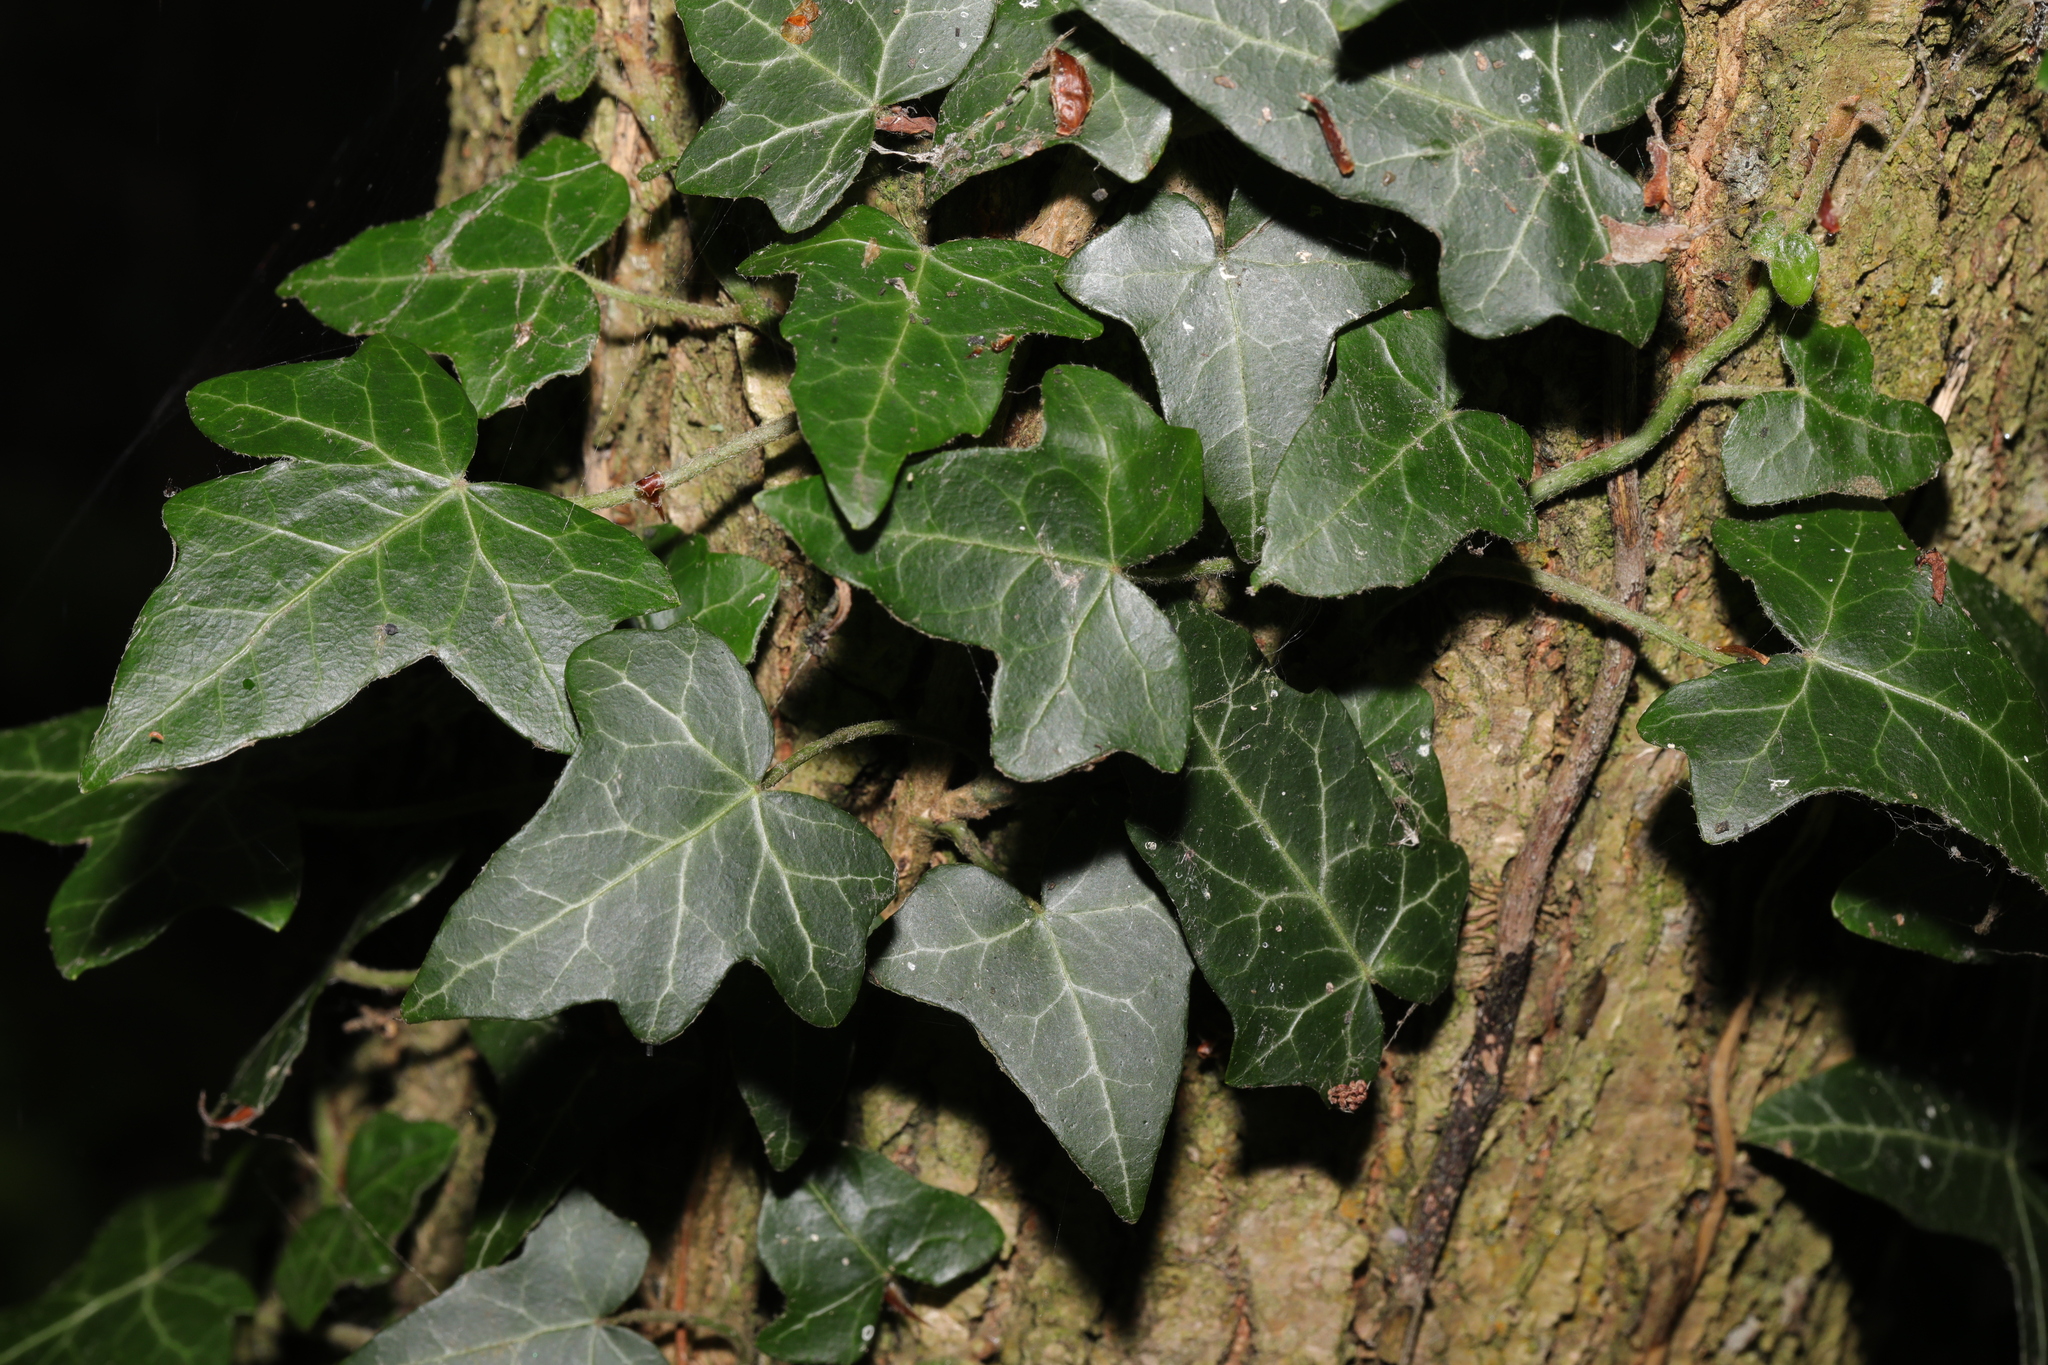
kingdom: Plantae
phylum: Tracheophyta
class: Magnoliopsida
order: Apiales
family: Araliaceae
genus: Hedera
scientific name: Hedera helix
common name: Ivy
